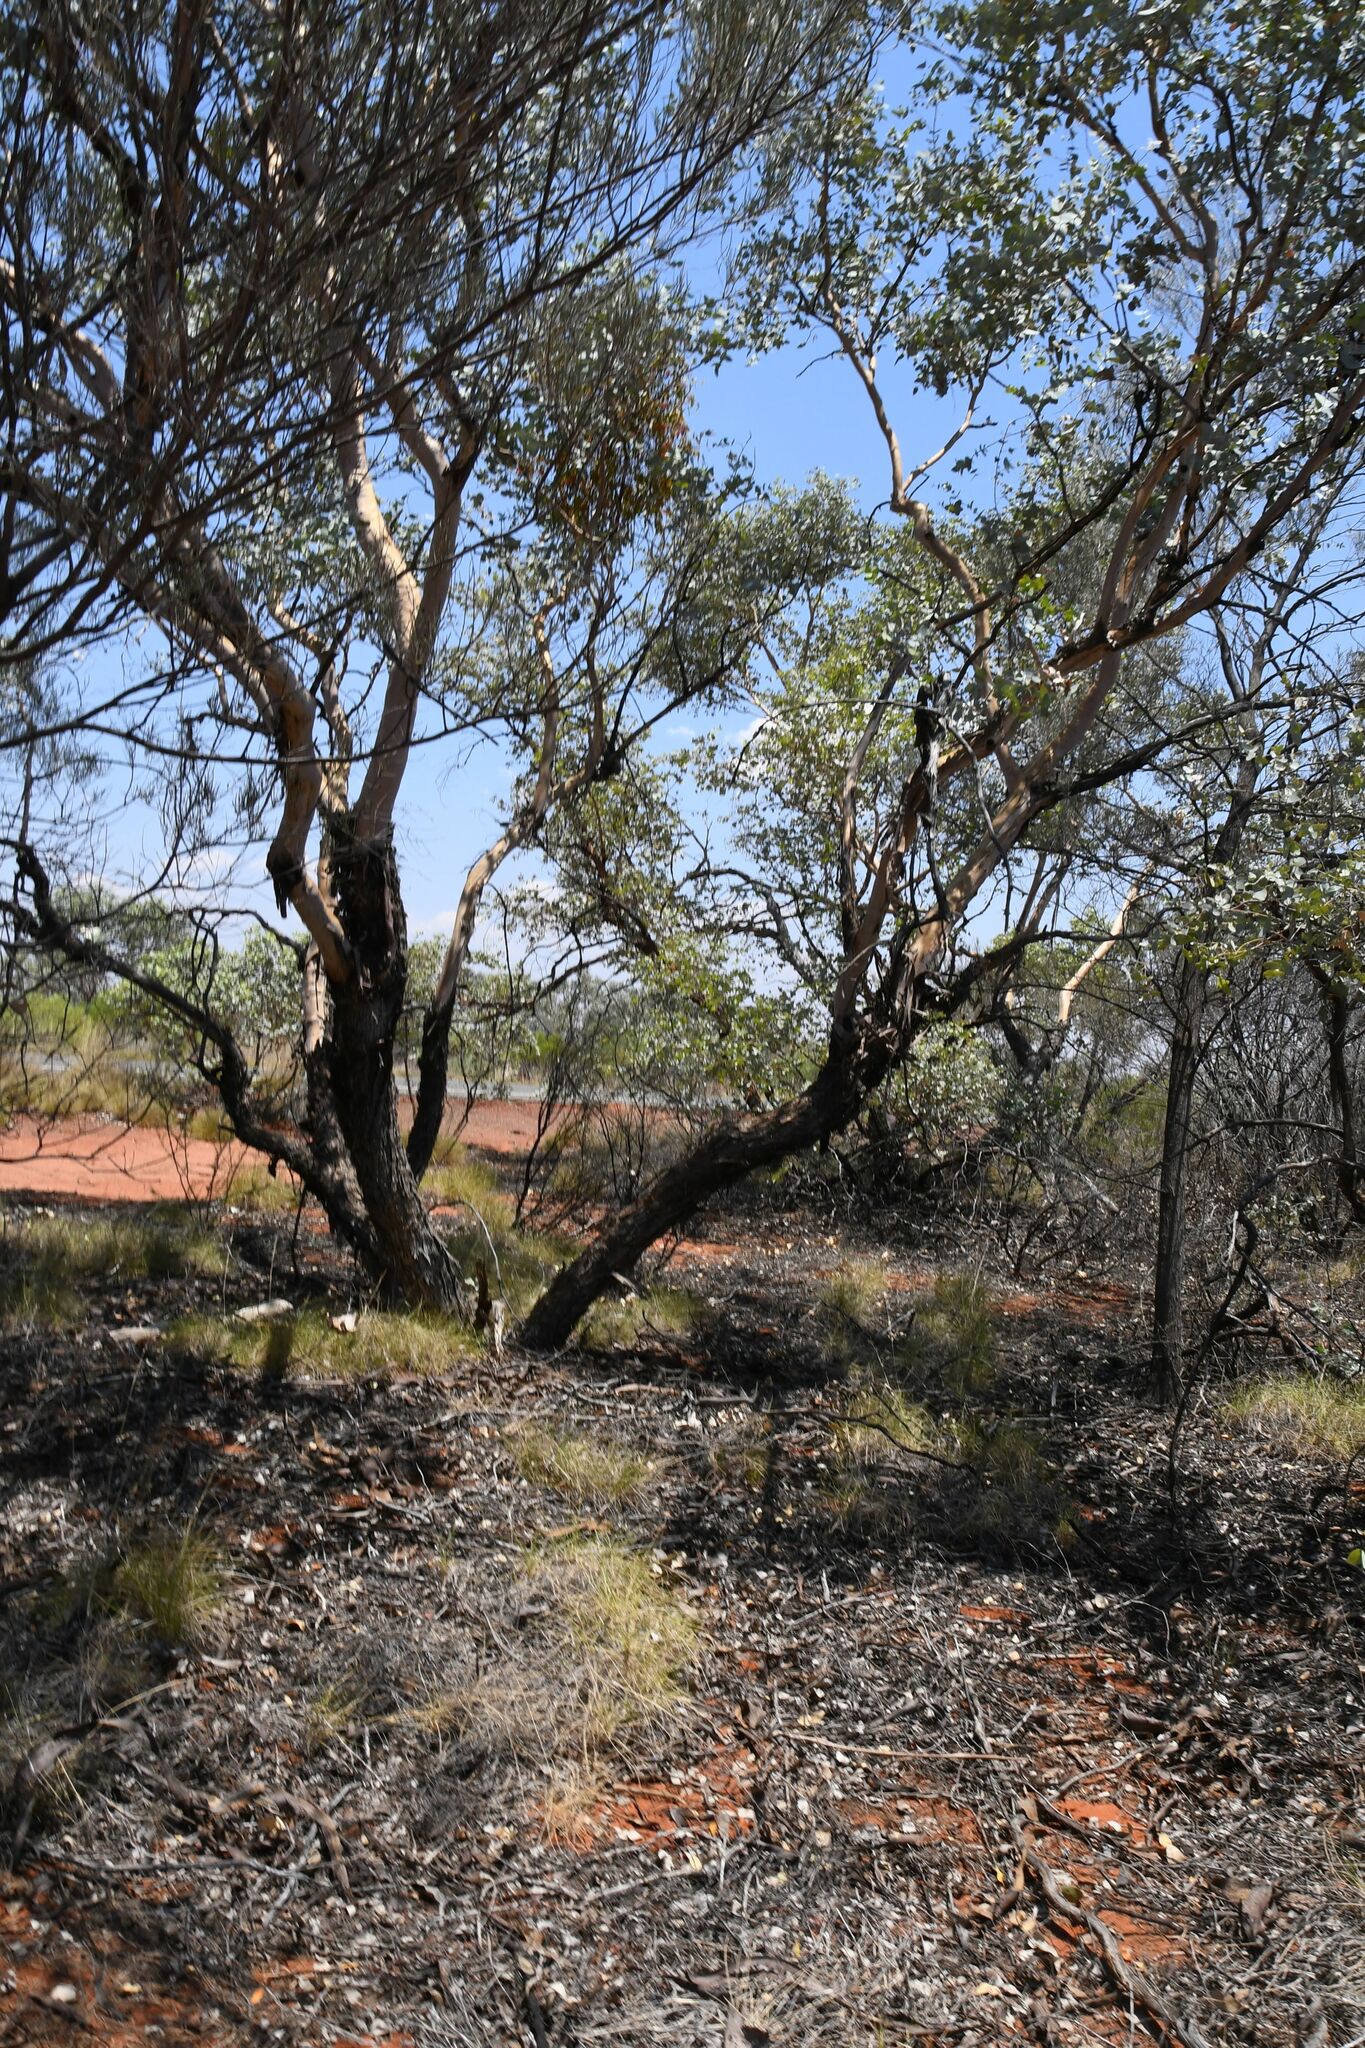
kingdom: Plantae
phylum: Tracheophyta
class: Magnoliopsida
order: Myrtales
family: Myrtaceae
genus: Eucalyptus
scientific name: Eucalyptus gamophylla
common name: Blue mallee
